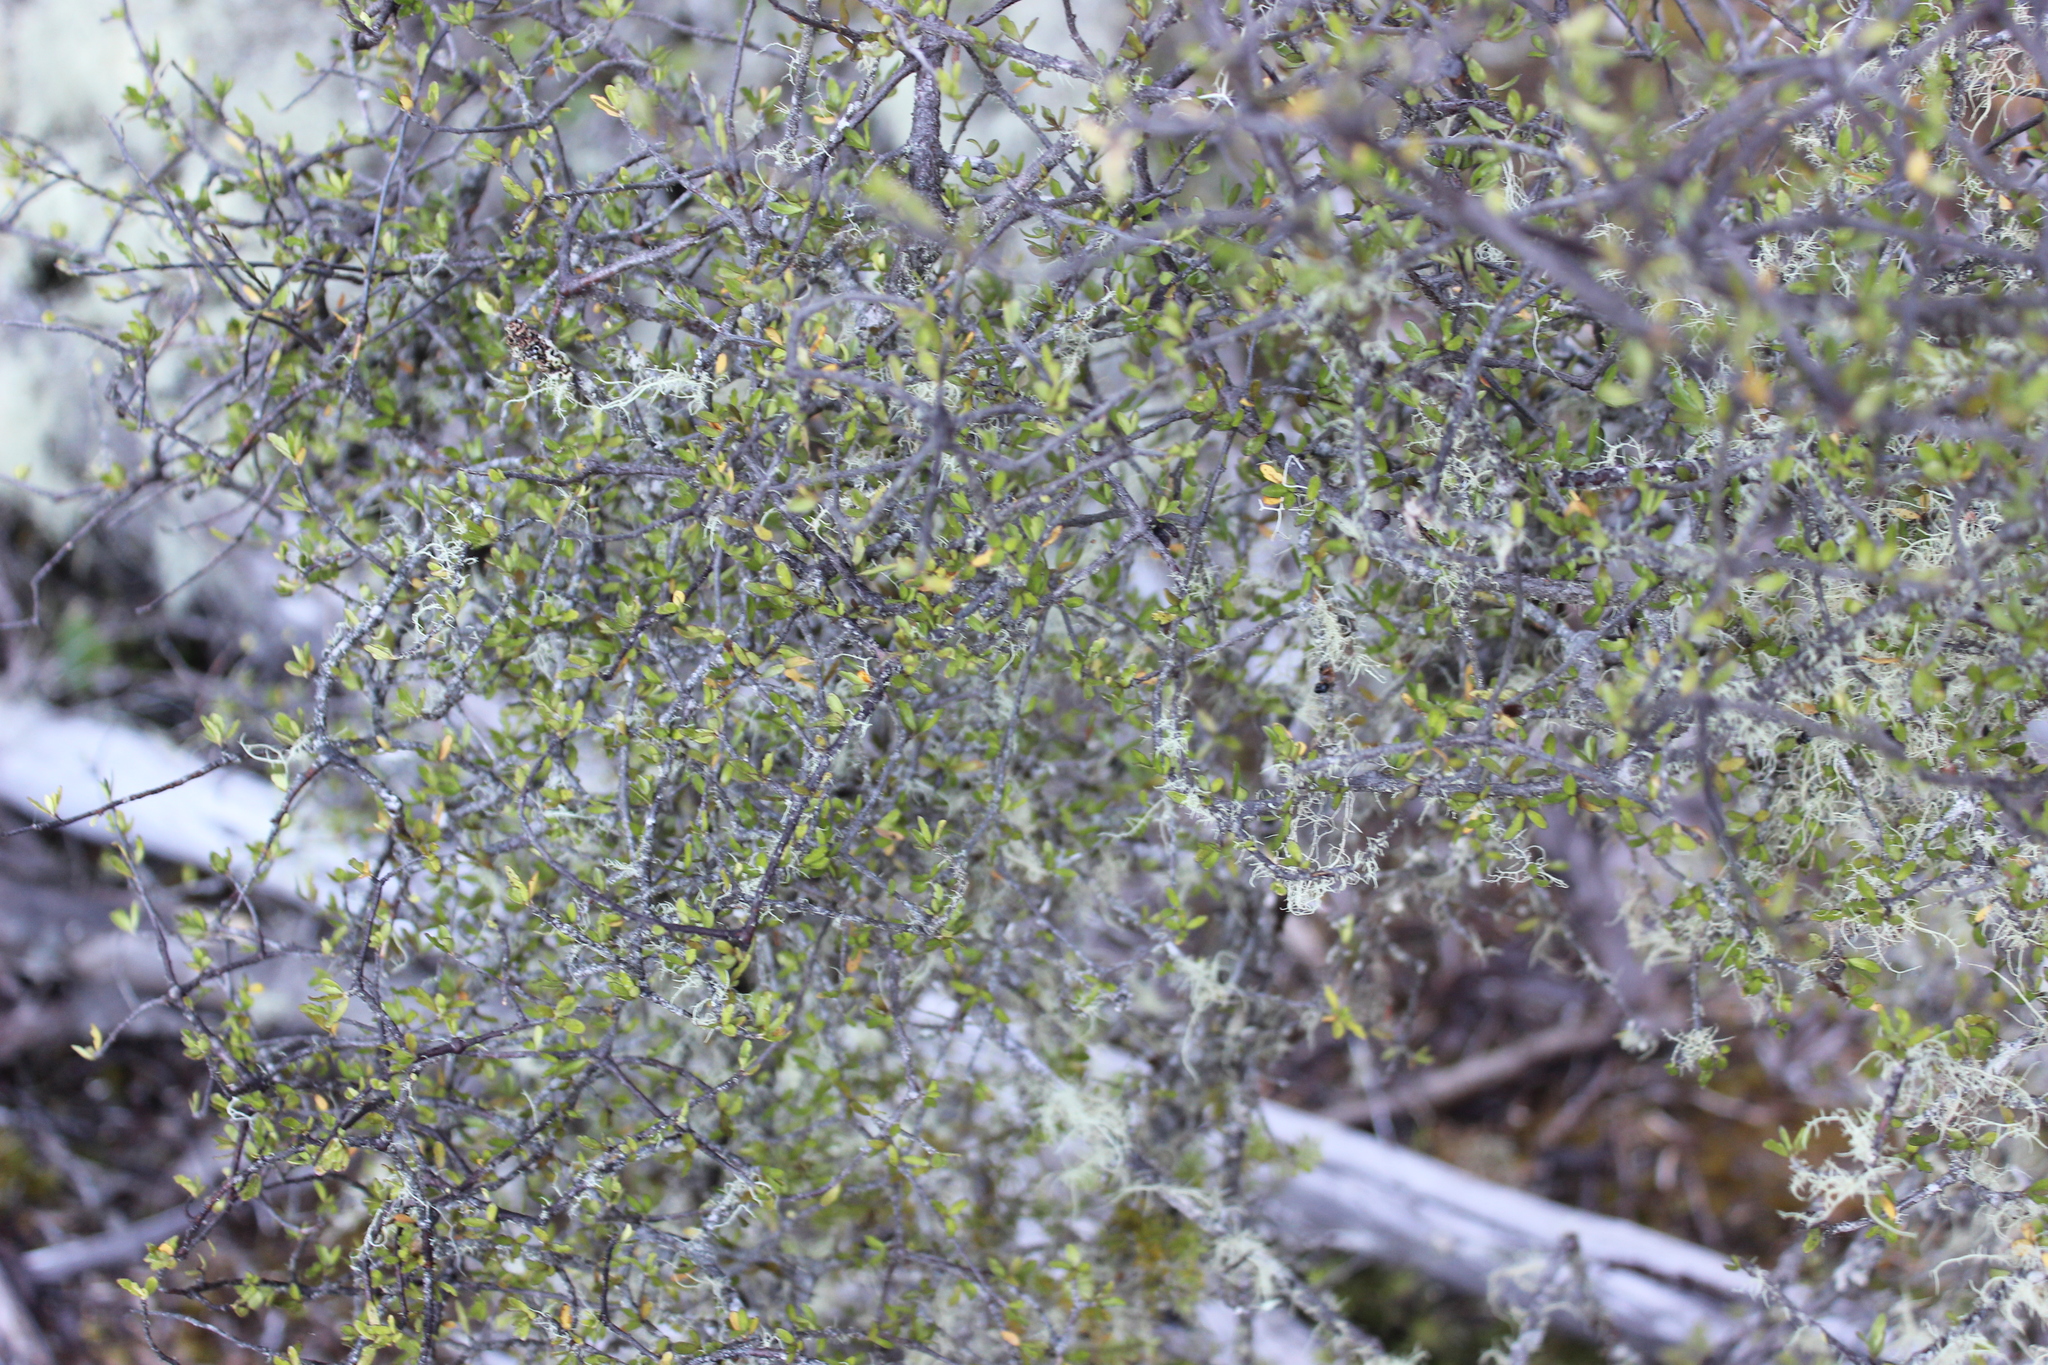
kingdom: Plantae
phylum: Tracheophyta
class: Magnoliopsida
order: Apiales
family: Pittosporaceae
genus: Pittosporum
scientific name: Pittosporum divaricatum
